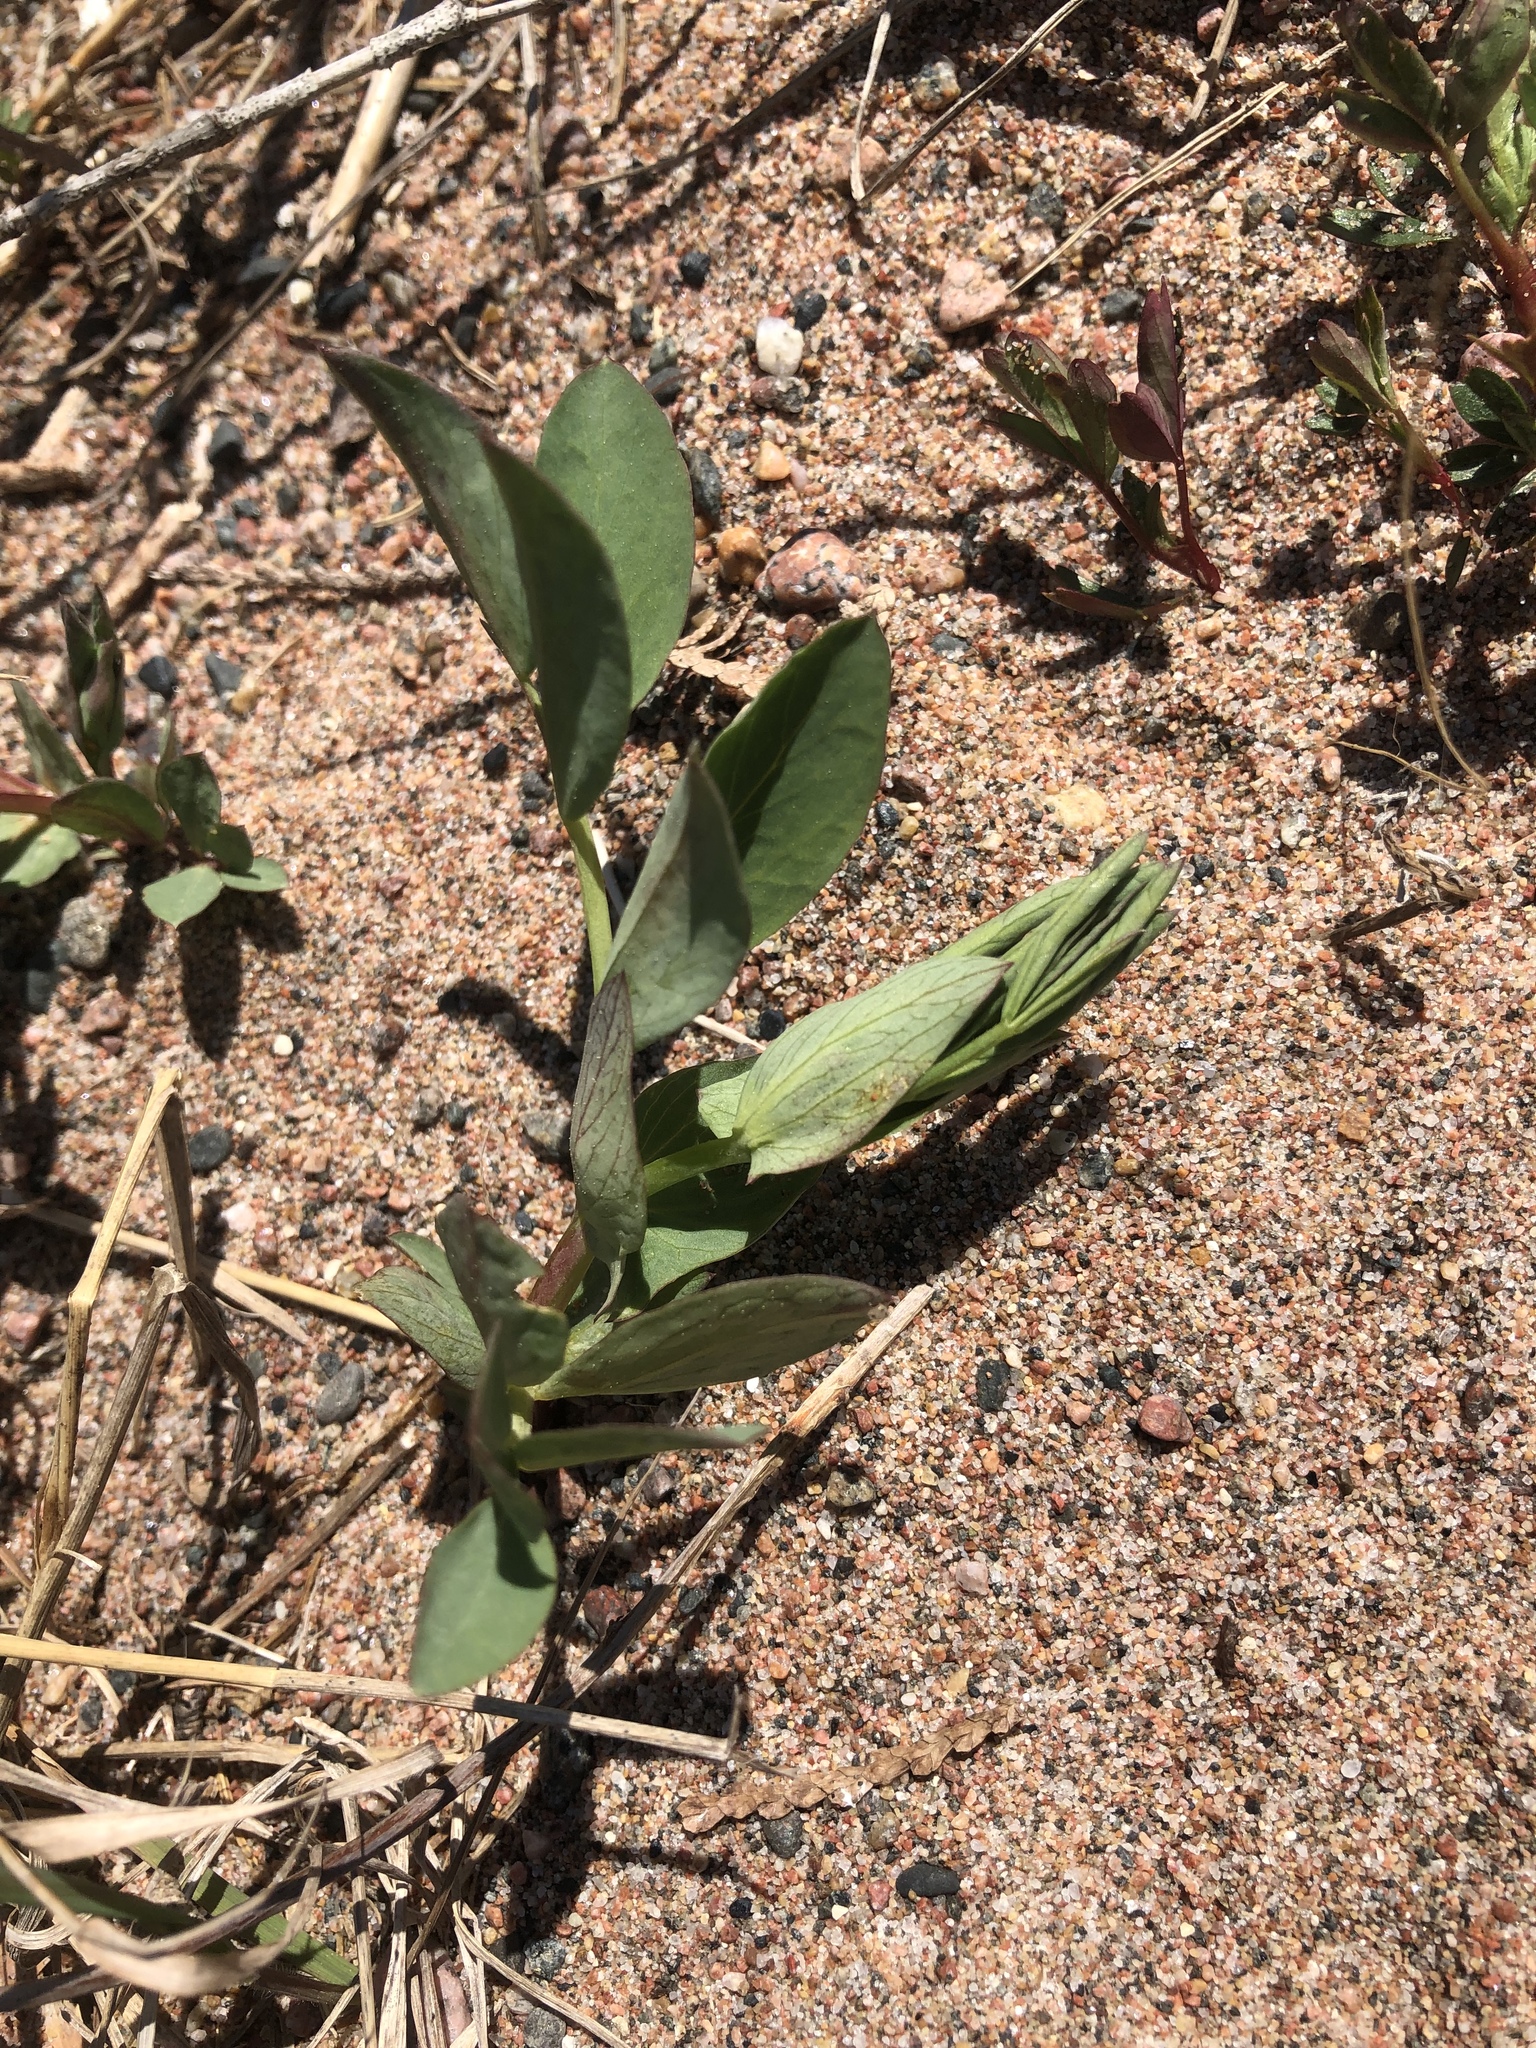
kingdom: Plantae
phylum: Tracheophyta
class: Magnoliopsida
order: Fabales
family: Fabaceae
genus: Lathyrus
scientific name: Lathyrus japonicus
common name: Sea pea
